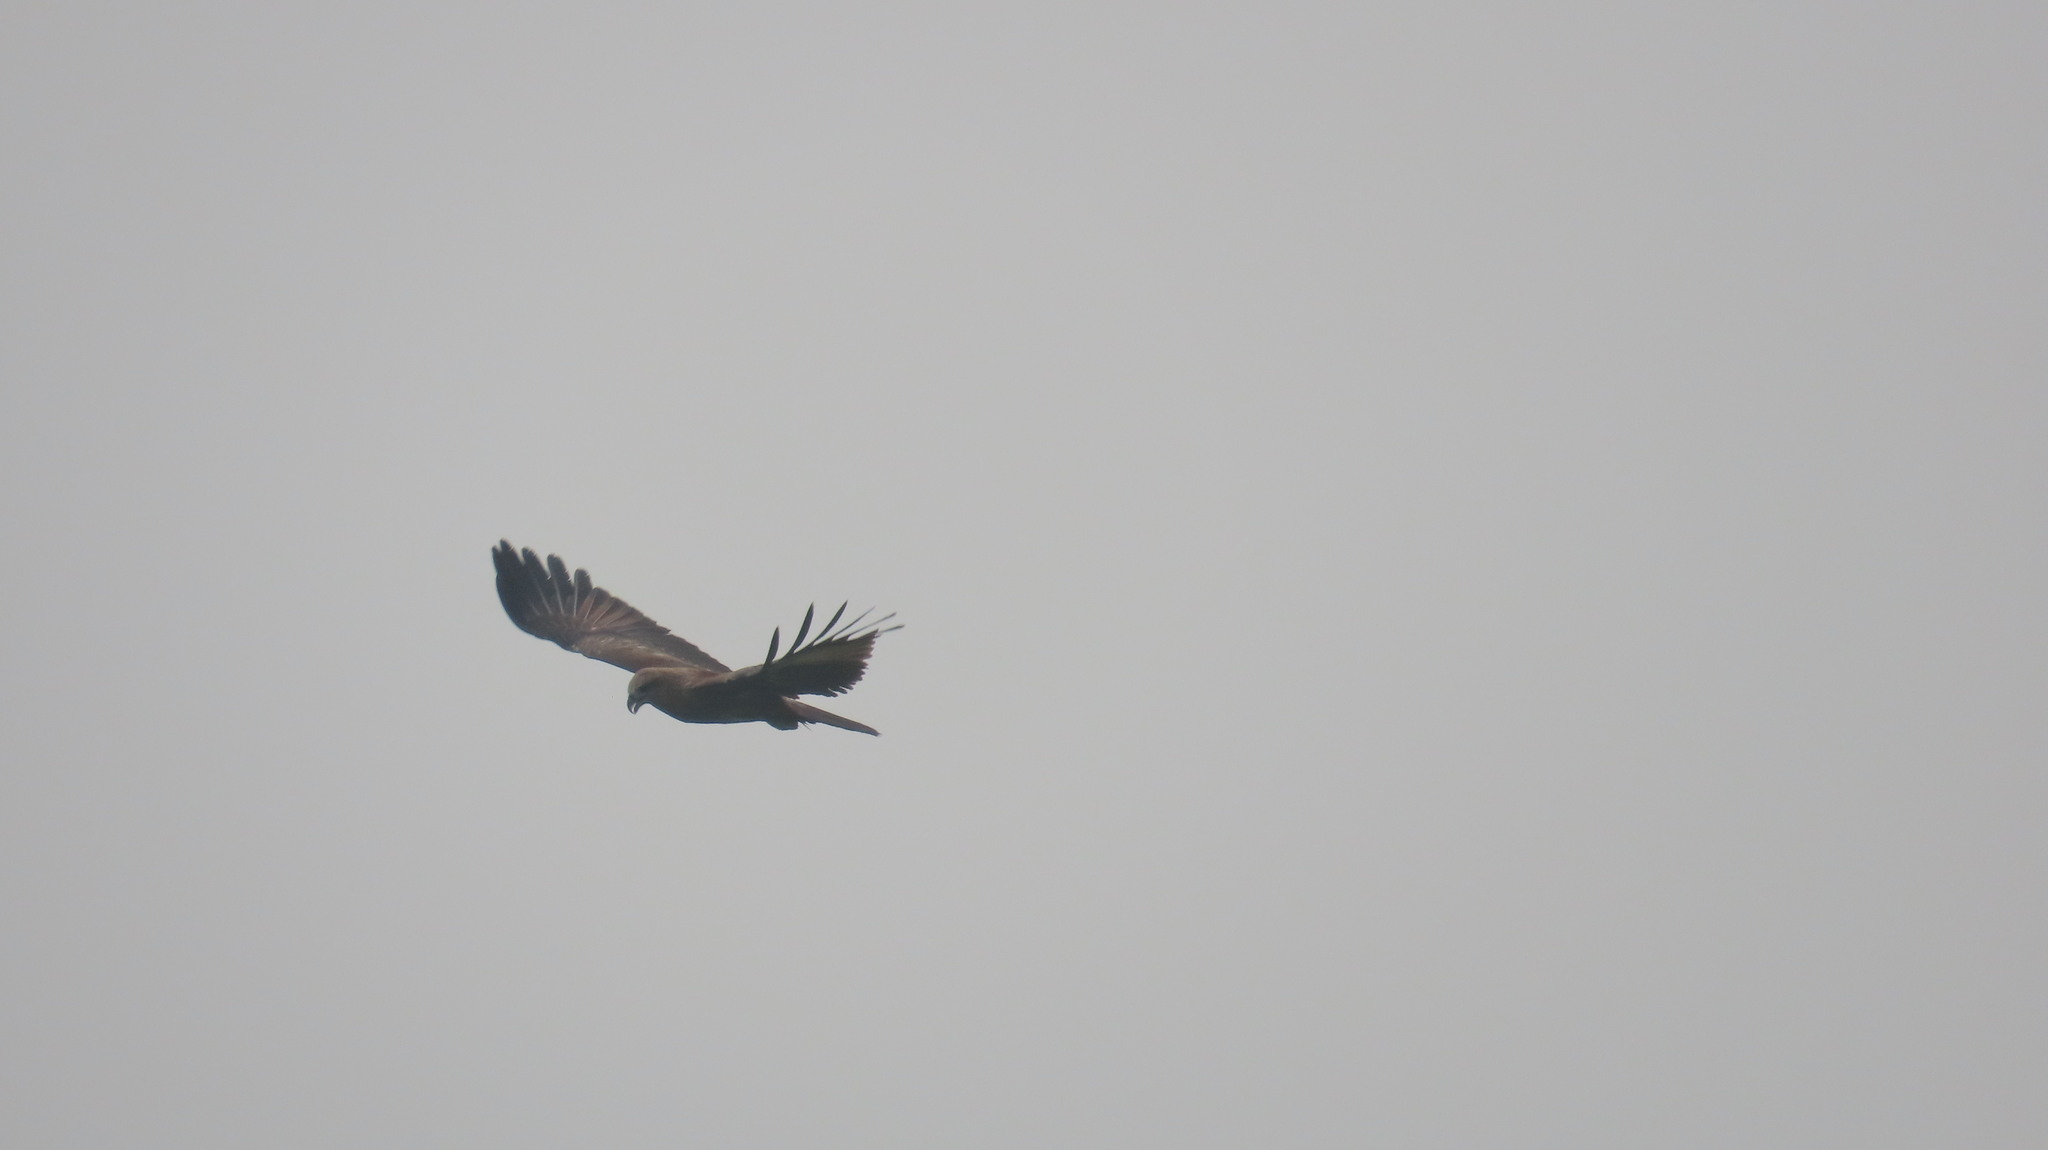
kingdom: Animalia
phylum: Chordata
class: Aves
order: Accipitriformes
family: Accipitridae
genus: Haliastur
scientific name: Haliastur indus
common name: Brahminy kite
